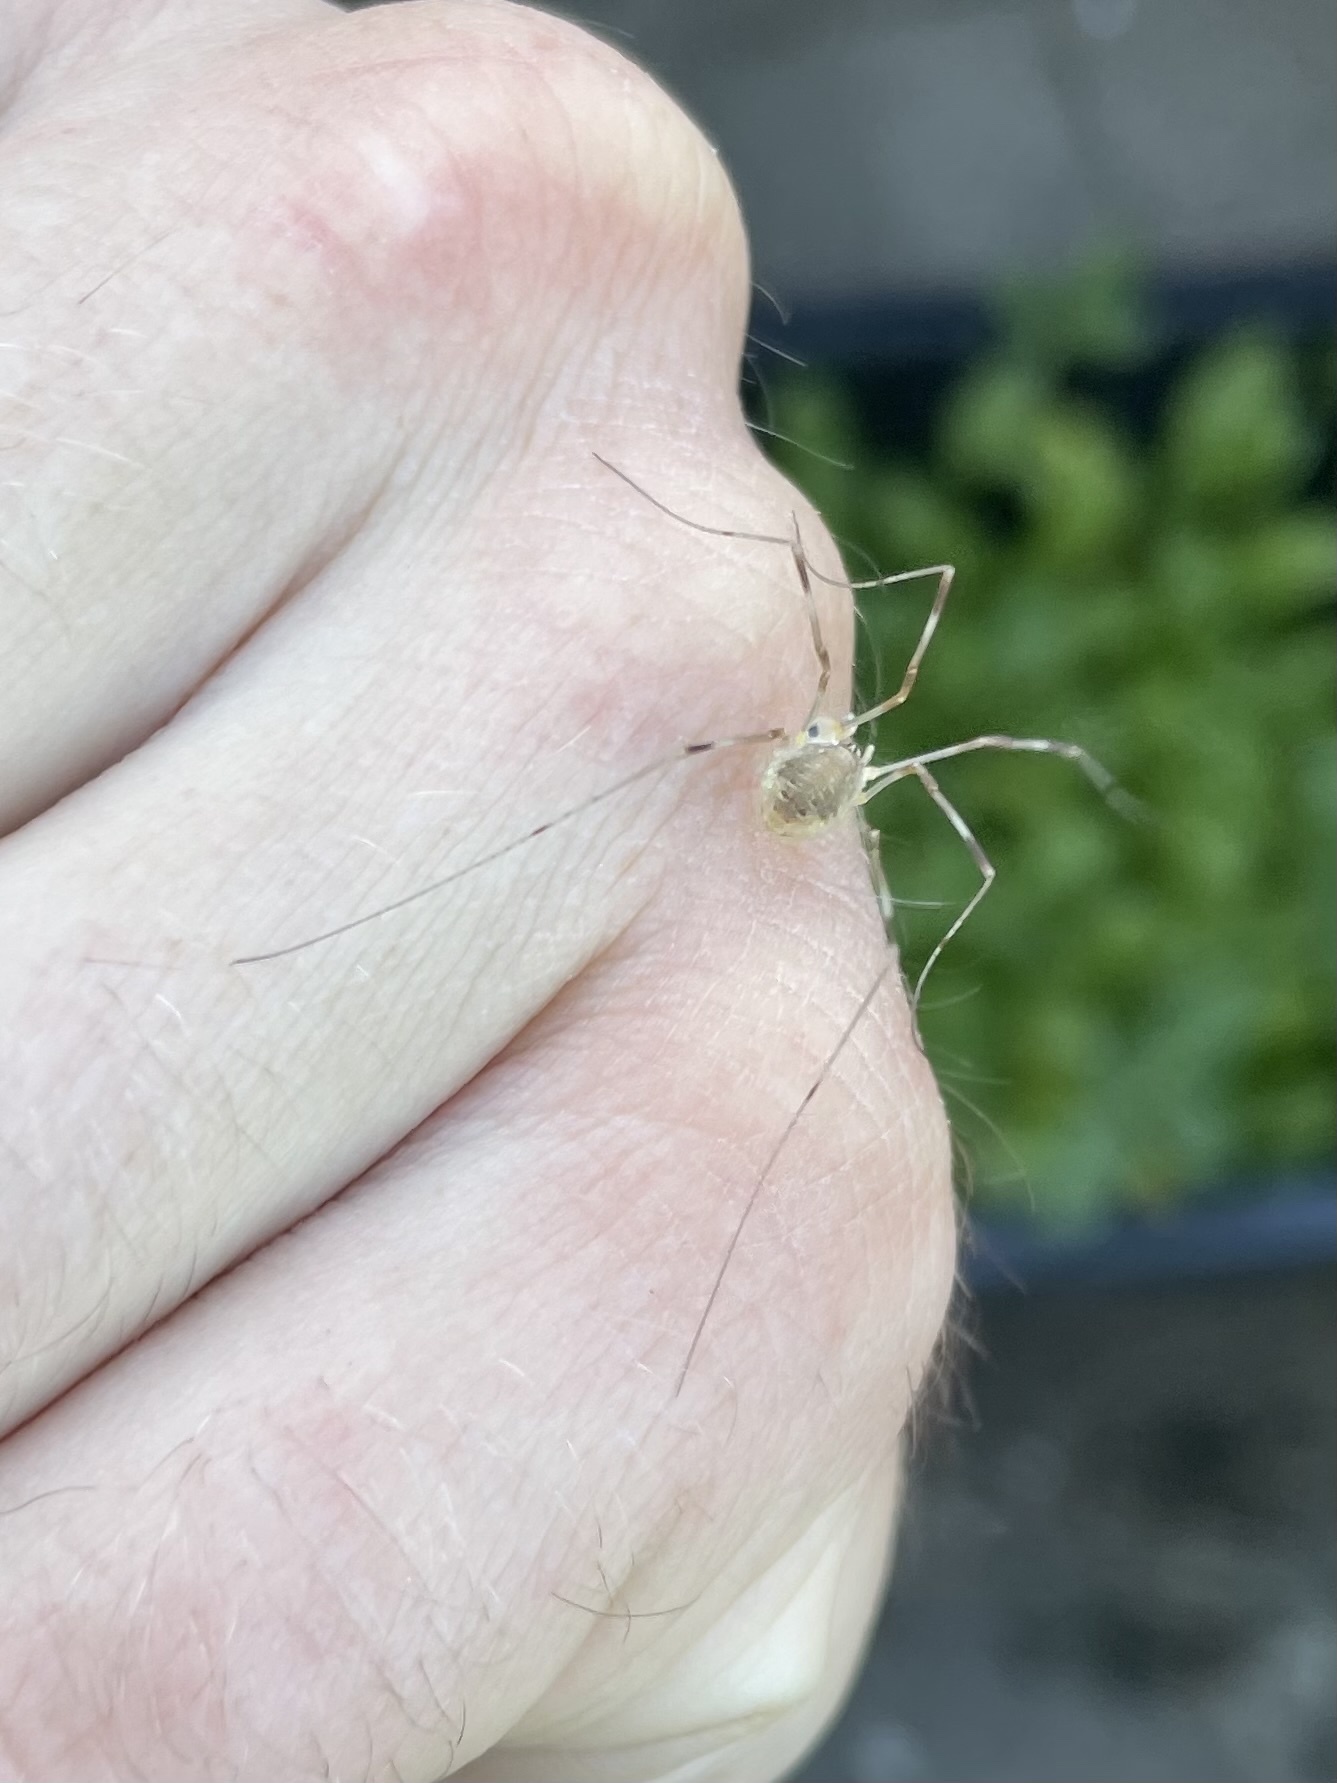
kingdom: Animalia
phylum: Arthropoda
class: Arachnida
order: Opiliones
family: Phalangiidae
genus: Opilio
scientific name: Opilio canestrinii
